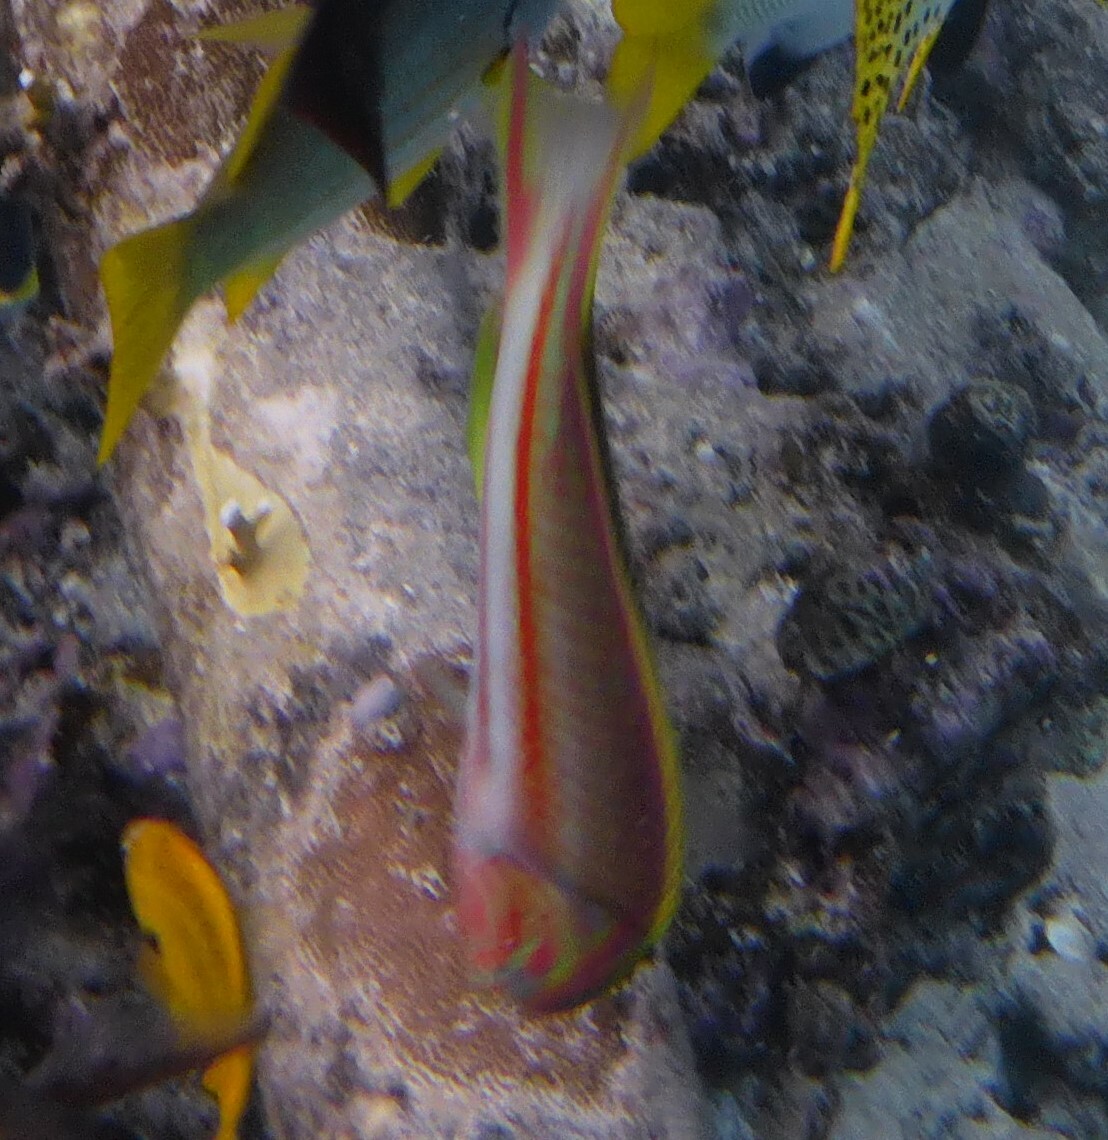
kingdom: Animalia
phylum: Chordata
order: Perciformes
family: Labridae
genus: Thalassoma
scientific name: Thalassoma rueppellii
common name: Klunzinger's wrasse
